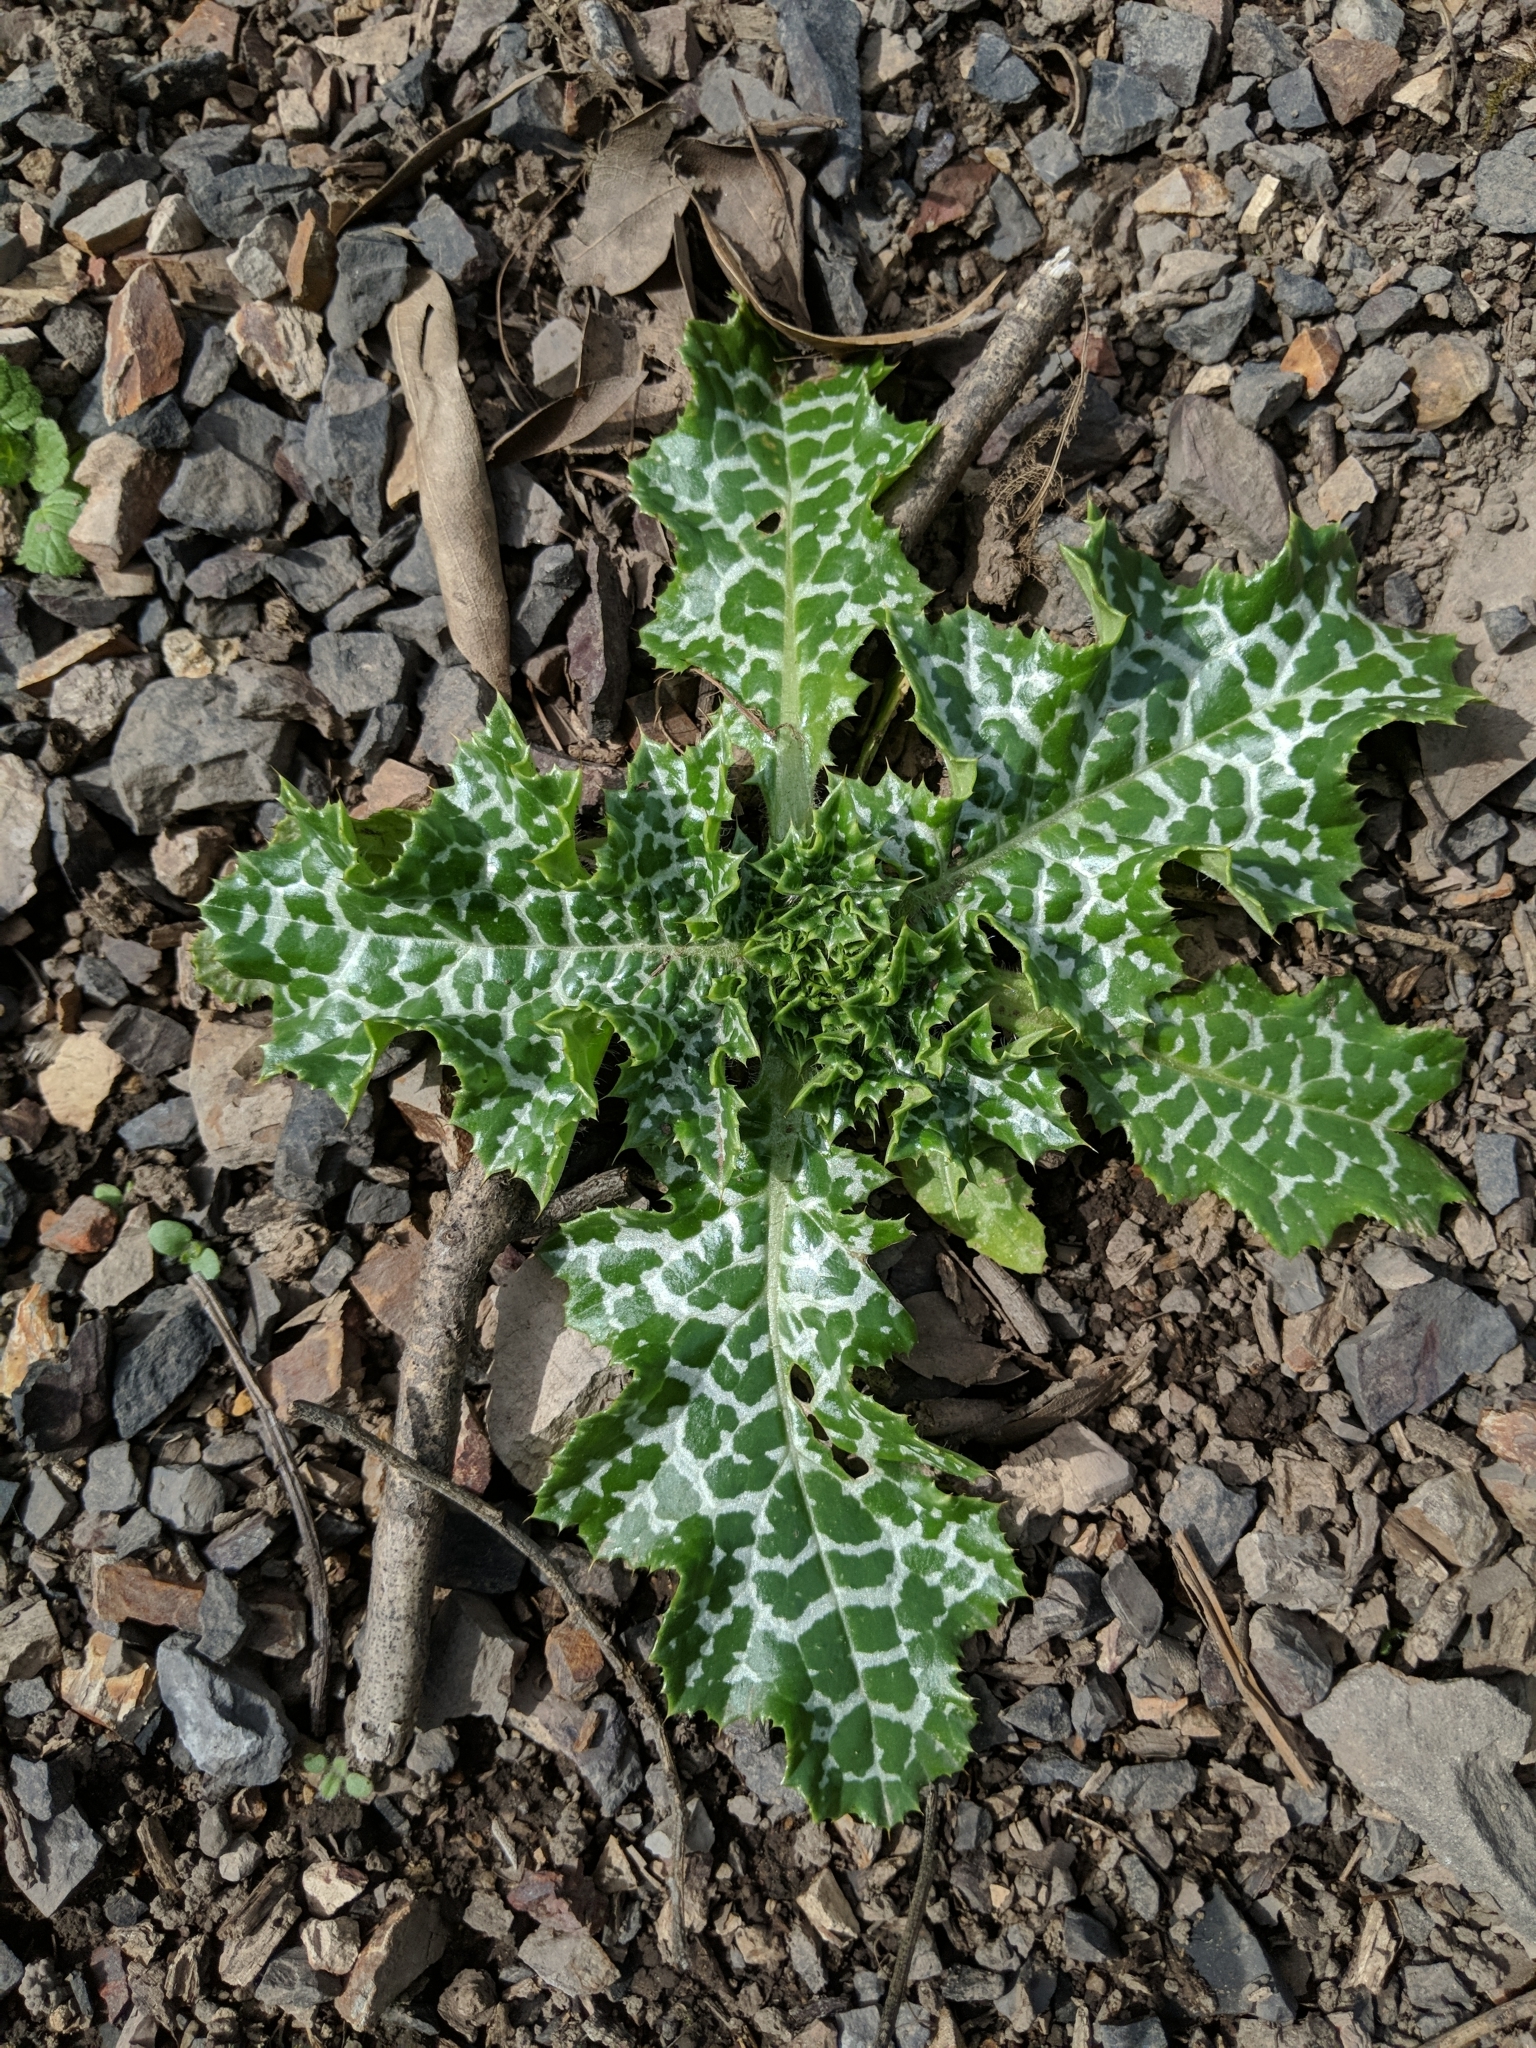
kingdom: Plantae
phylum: Tracheophyta
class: Magnoliopsida
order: Asterales
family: Asteraceae
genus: Silybum
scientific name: Silybum marianum
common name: Milk thistle
